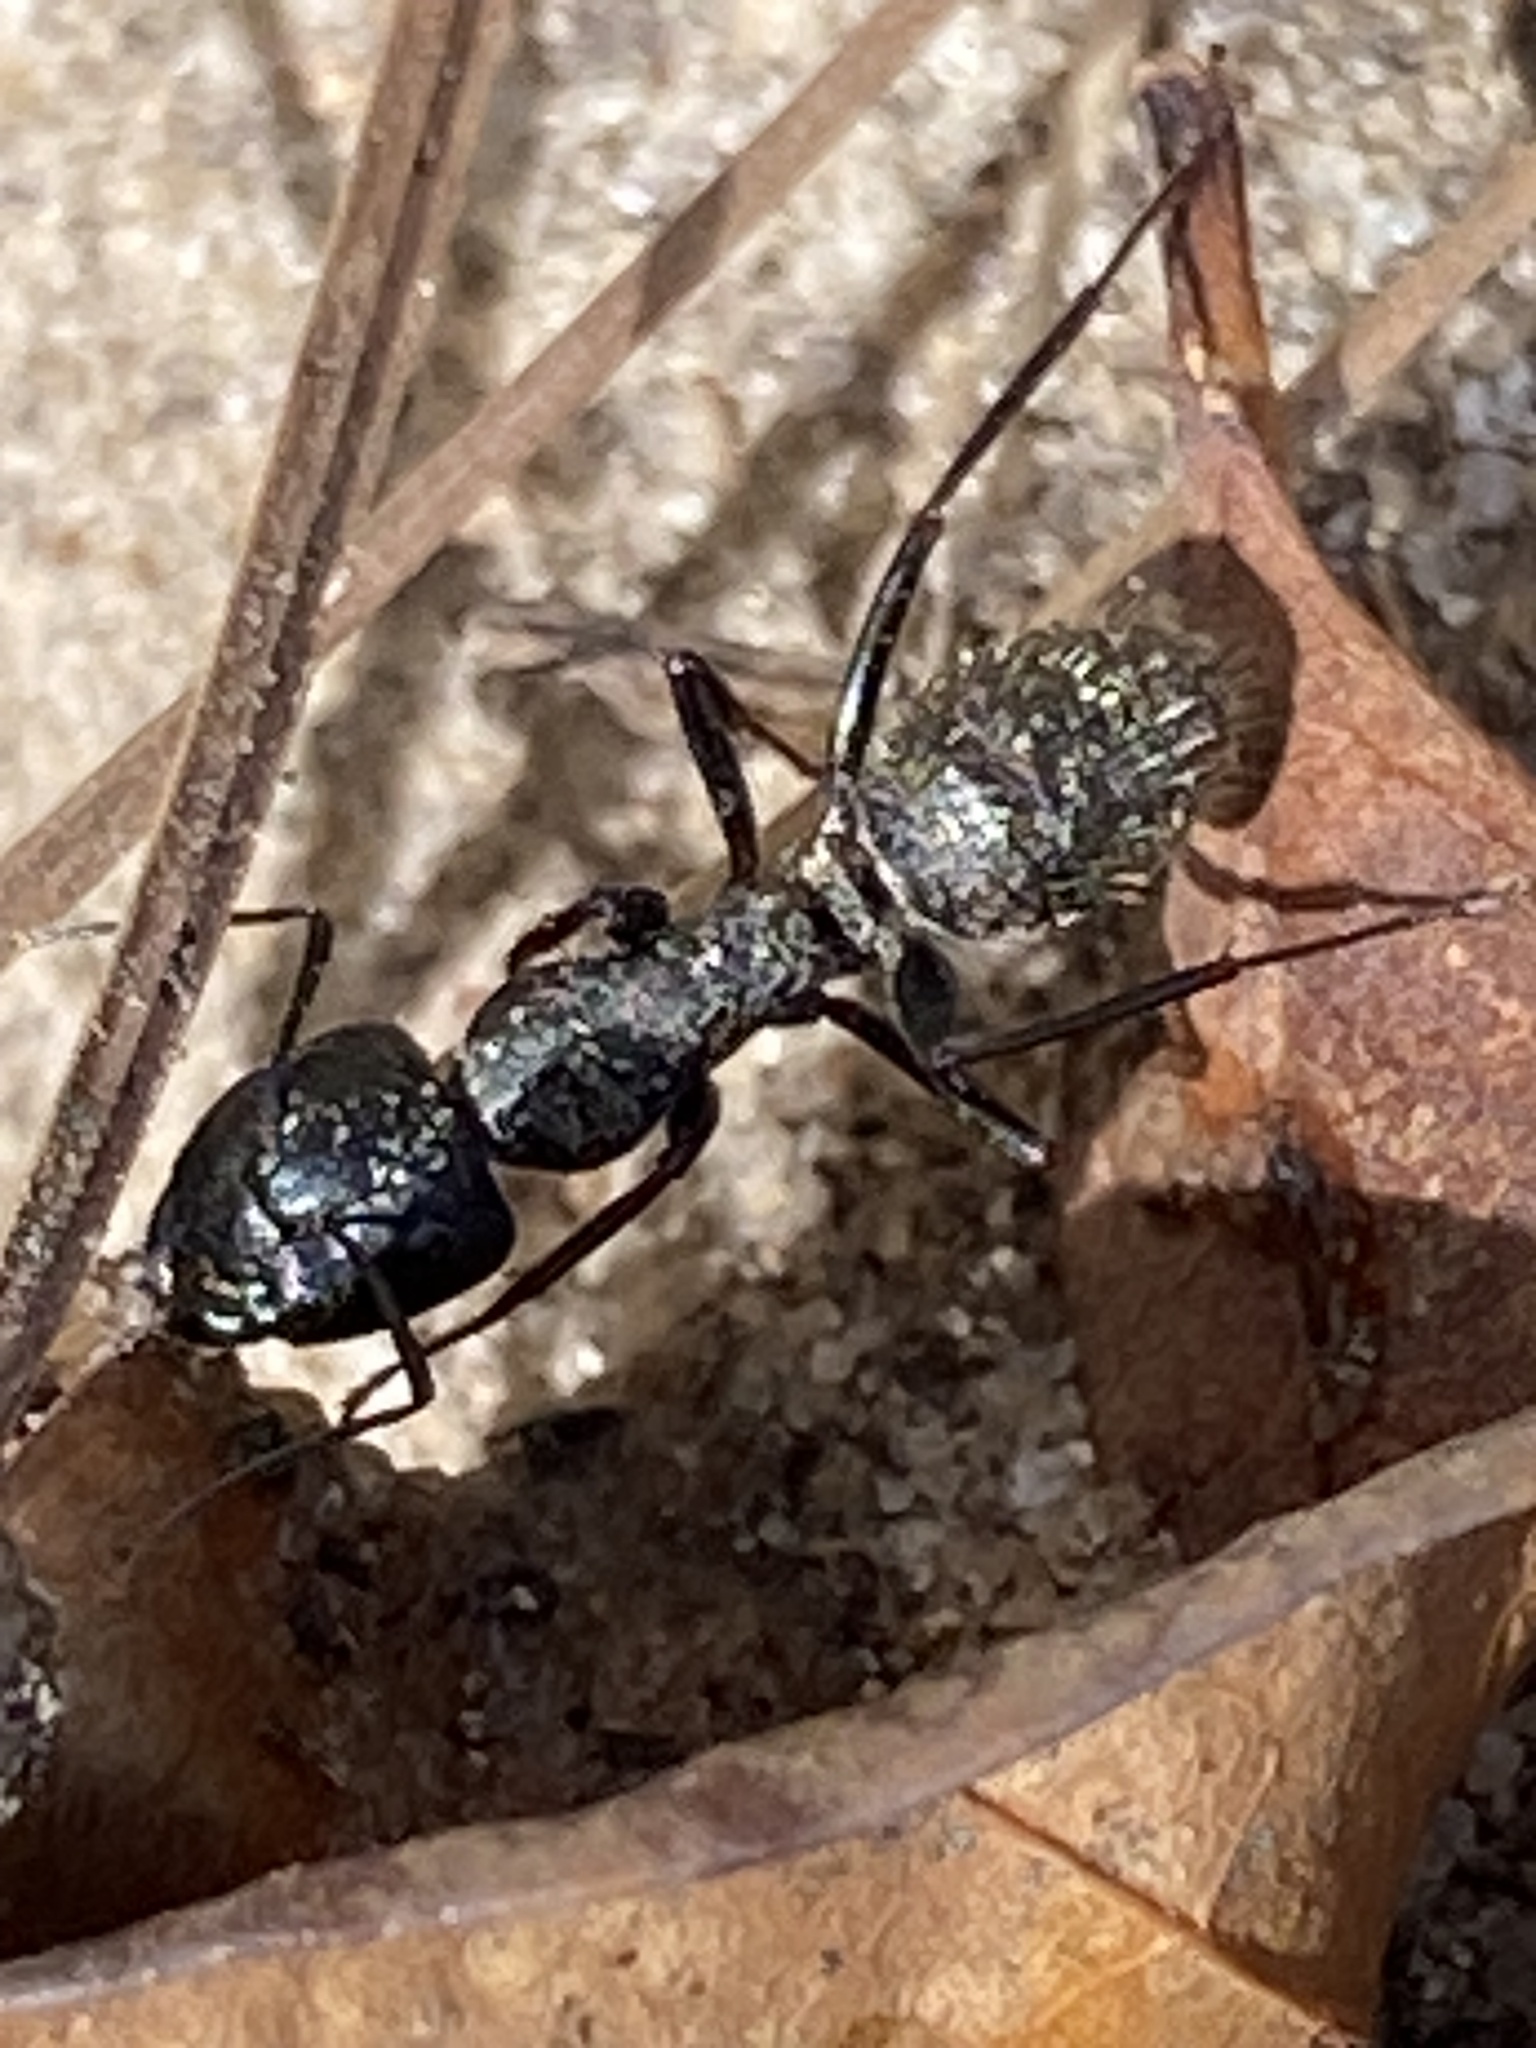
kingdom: Animalia
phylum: Arthropoda
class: Insecta
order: Hymenoptera
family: Formicidae
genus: Camponotus
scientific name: Camponotus pennsylvanicus
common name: Black carpenter ant
